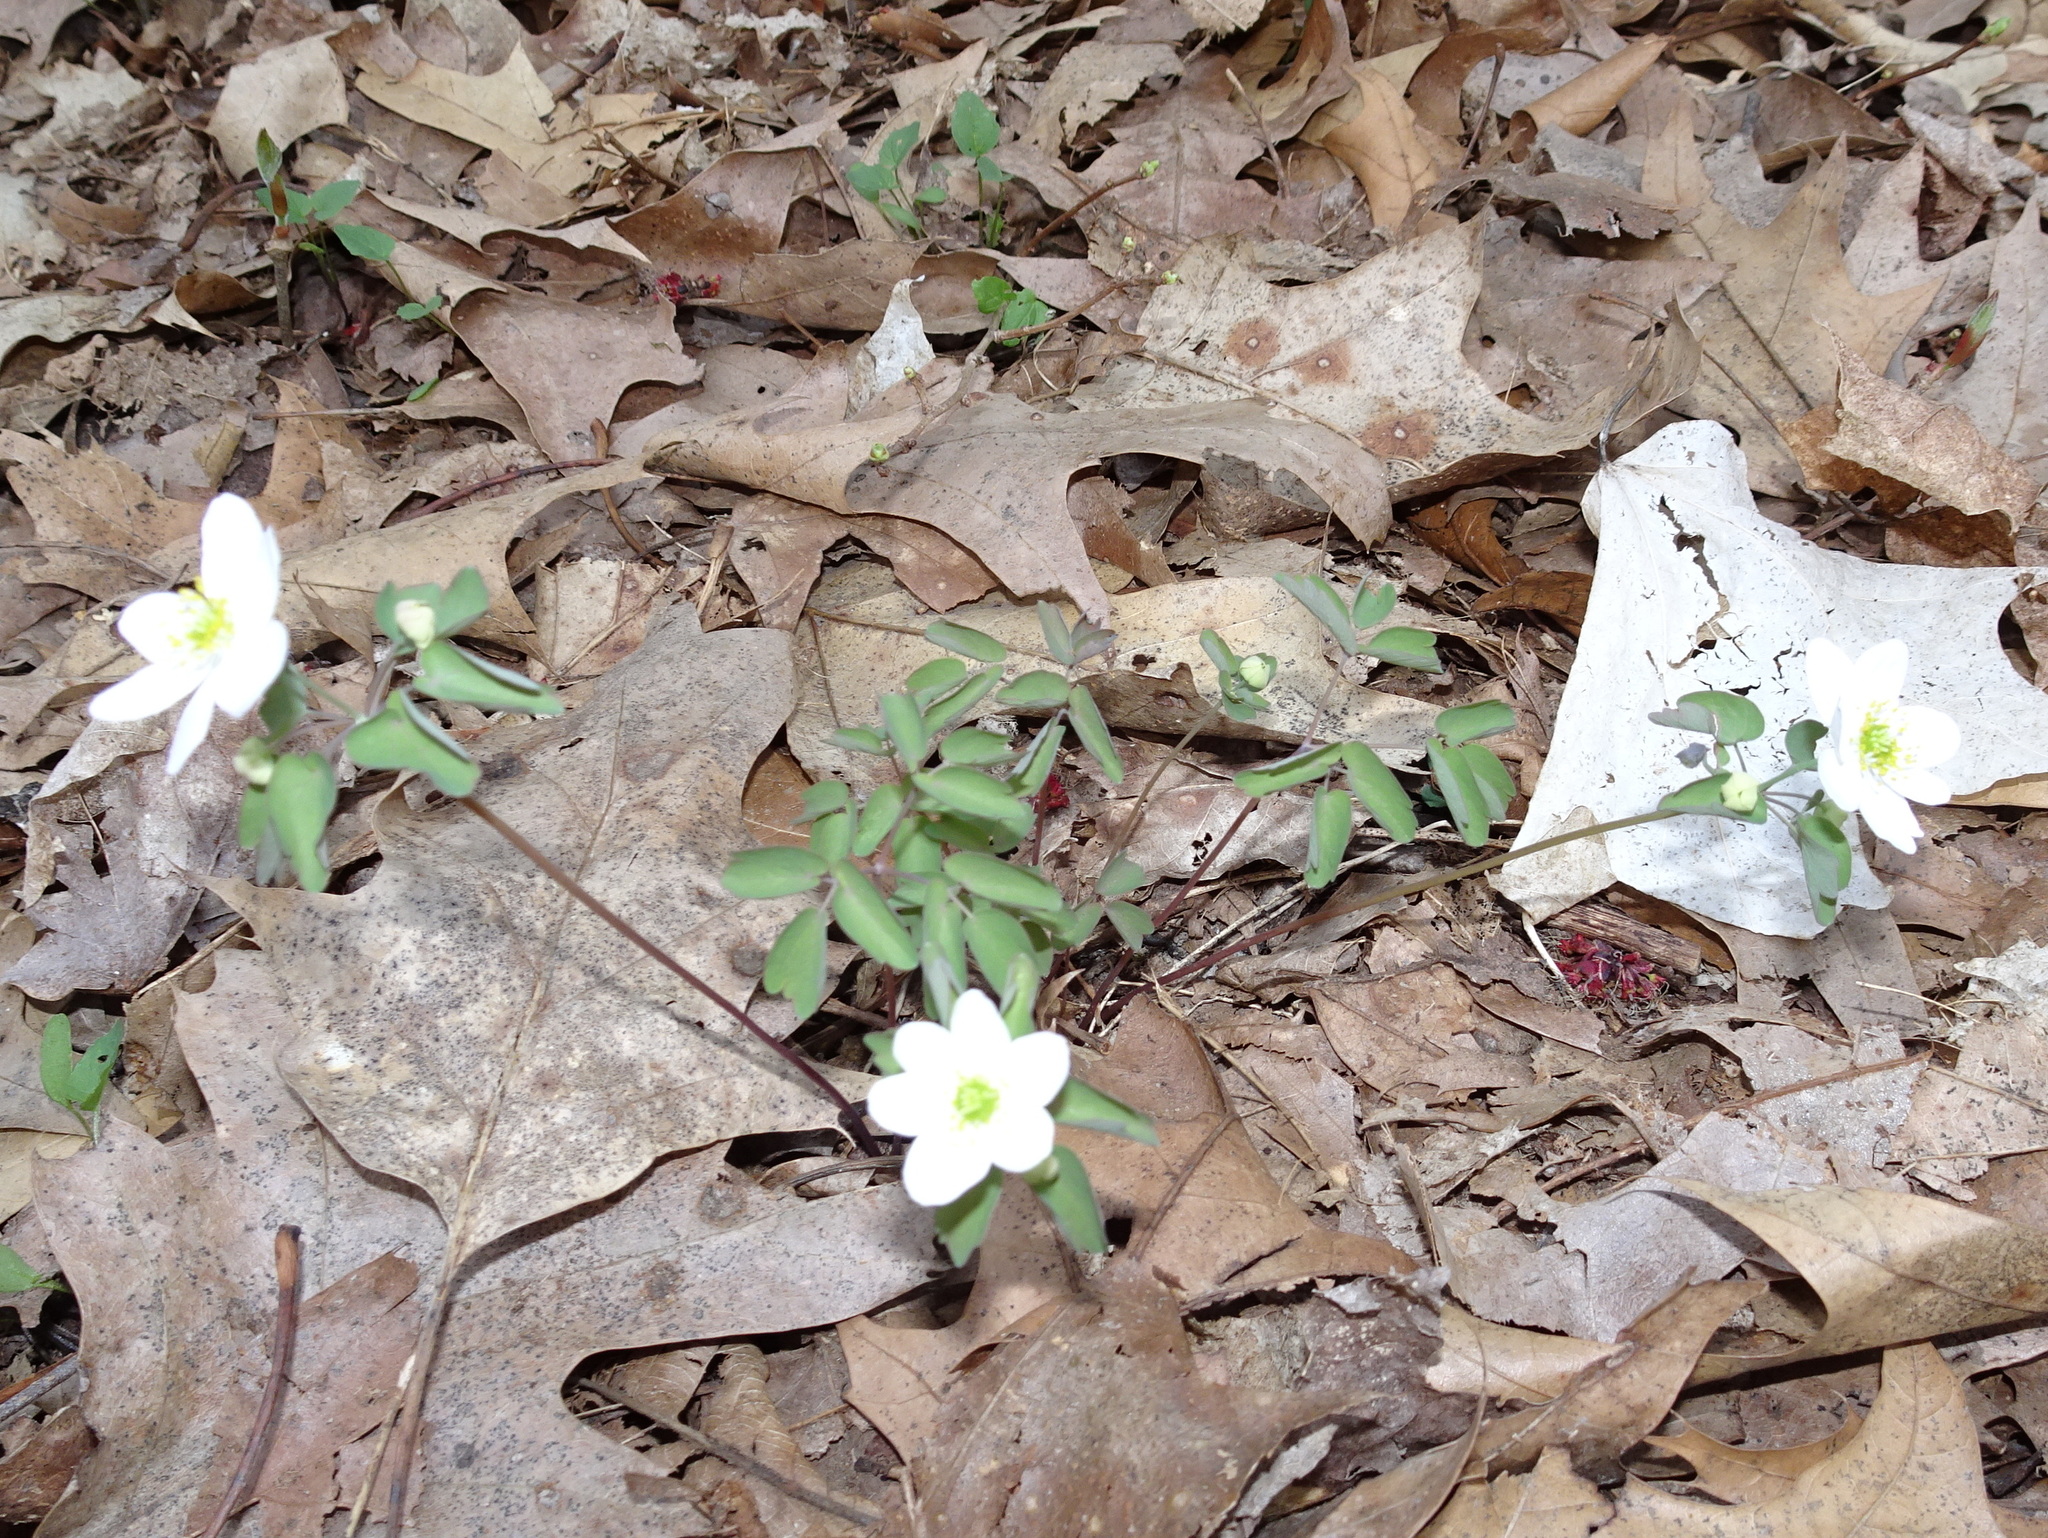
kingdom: Plantae
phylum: Tracheophyta
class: Magnoliopsida
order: Ranunculales
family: Ranunculaceae
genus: Thalictrum
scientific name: Thalictrum thalictroides
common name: Rue-anemone
